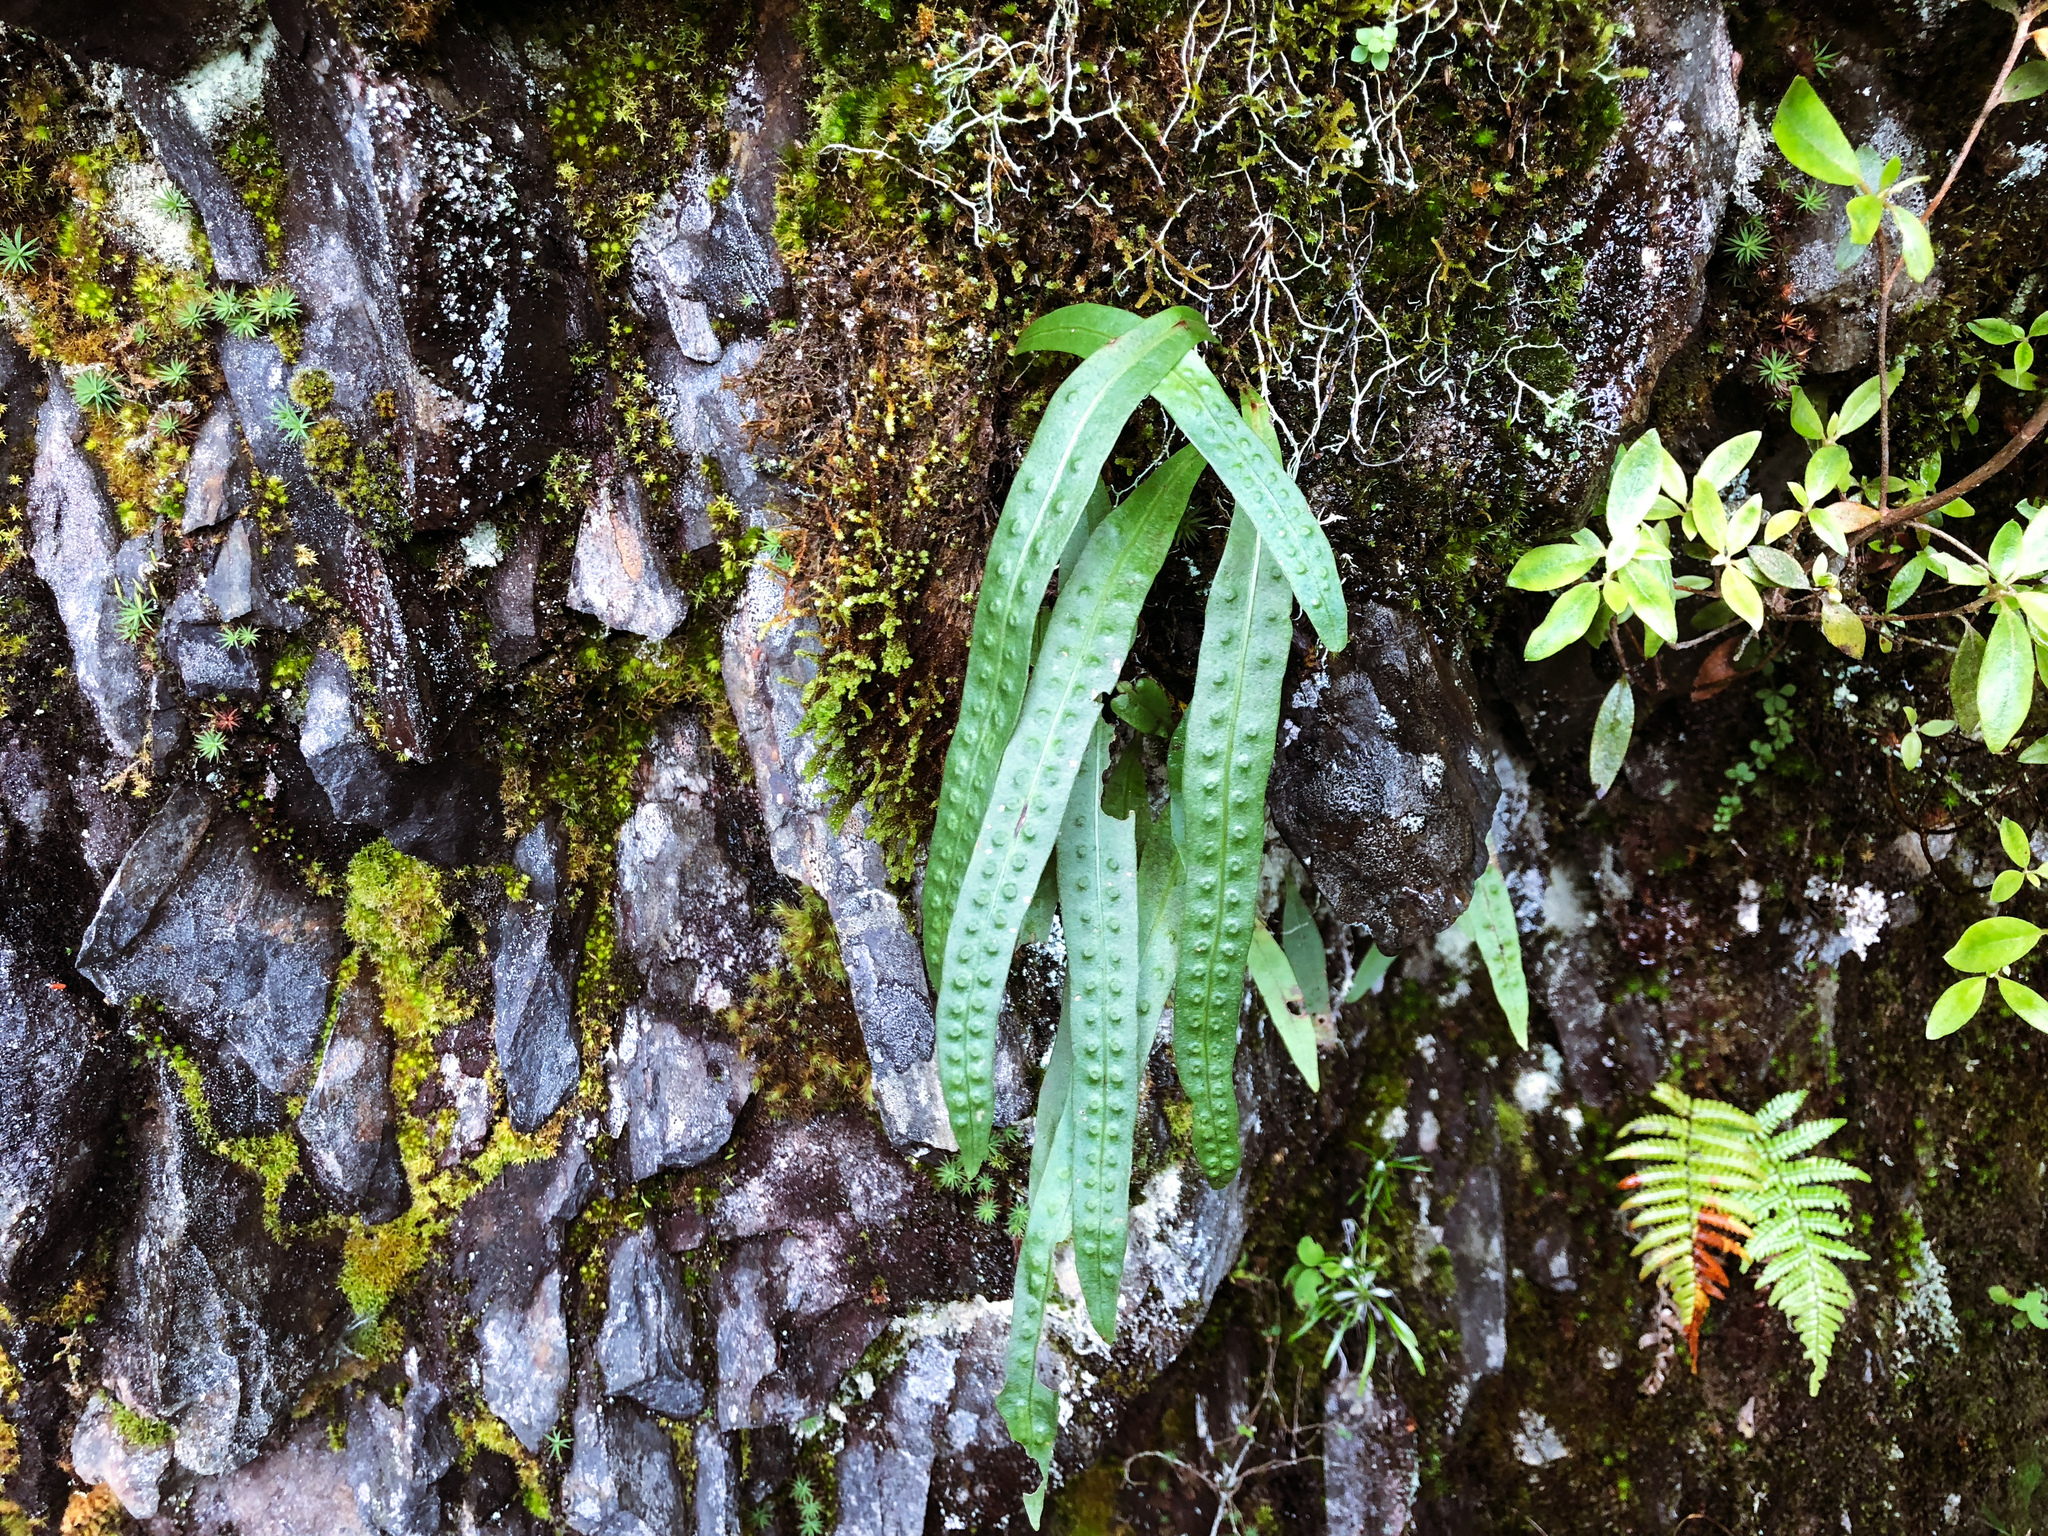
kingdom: Plantae
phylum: Tracheophyta
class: Polypodiopsida
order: Polypodiales
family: Polypodiaceae
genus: Lepisorus
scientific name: Lepisorus morrisonensis
